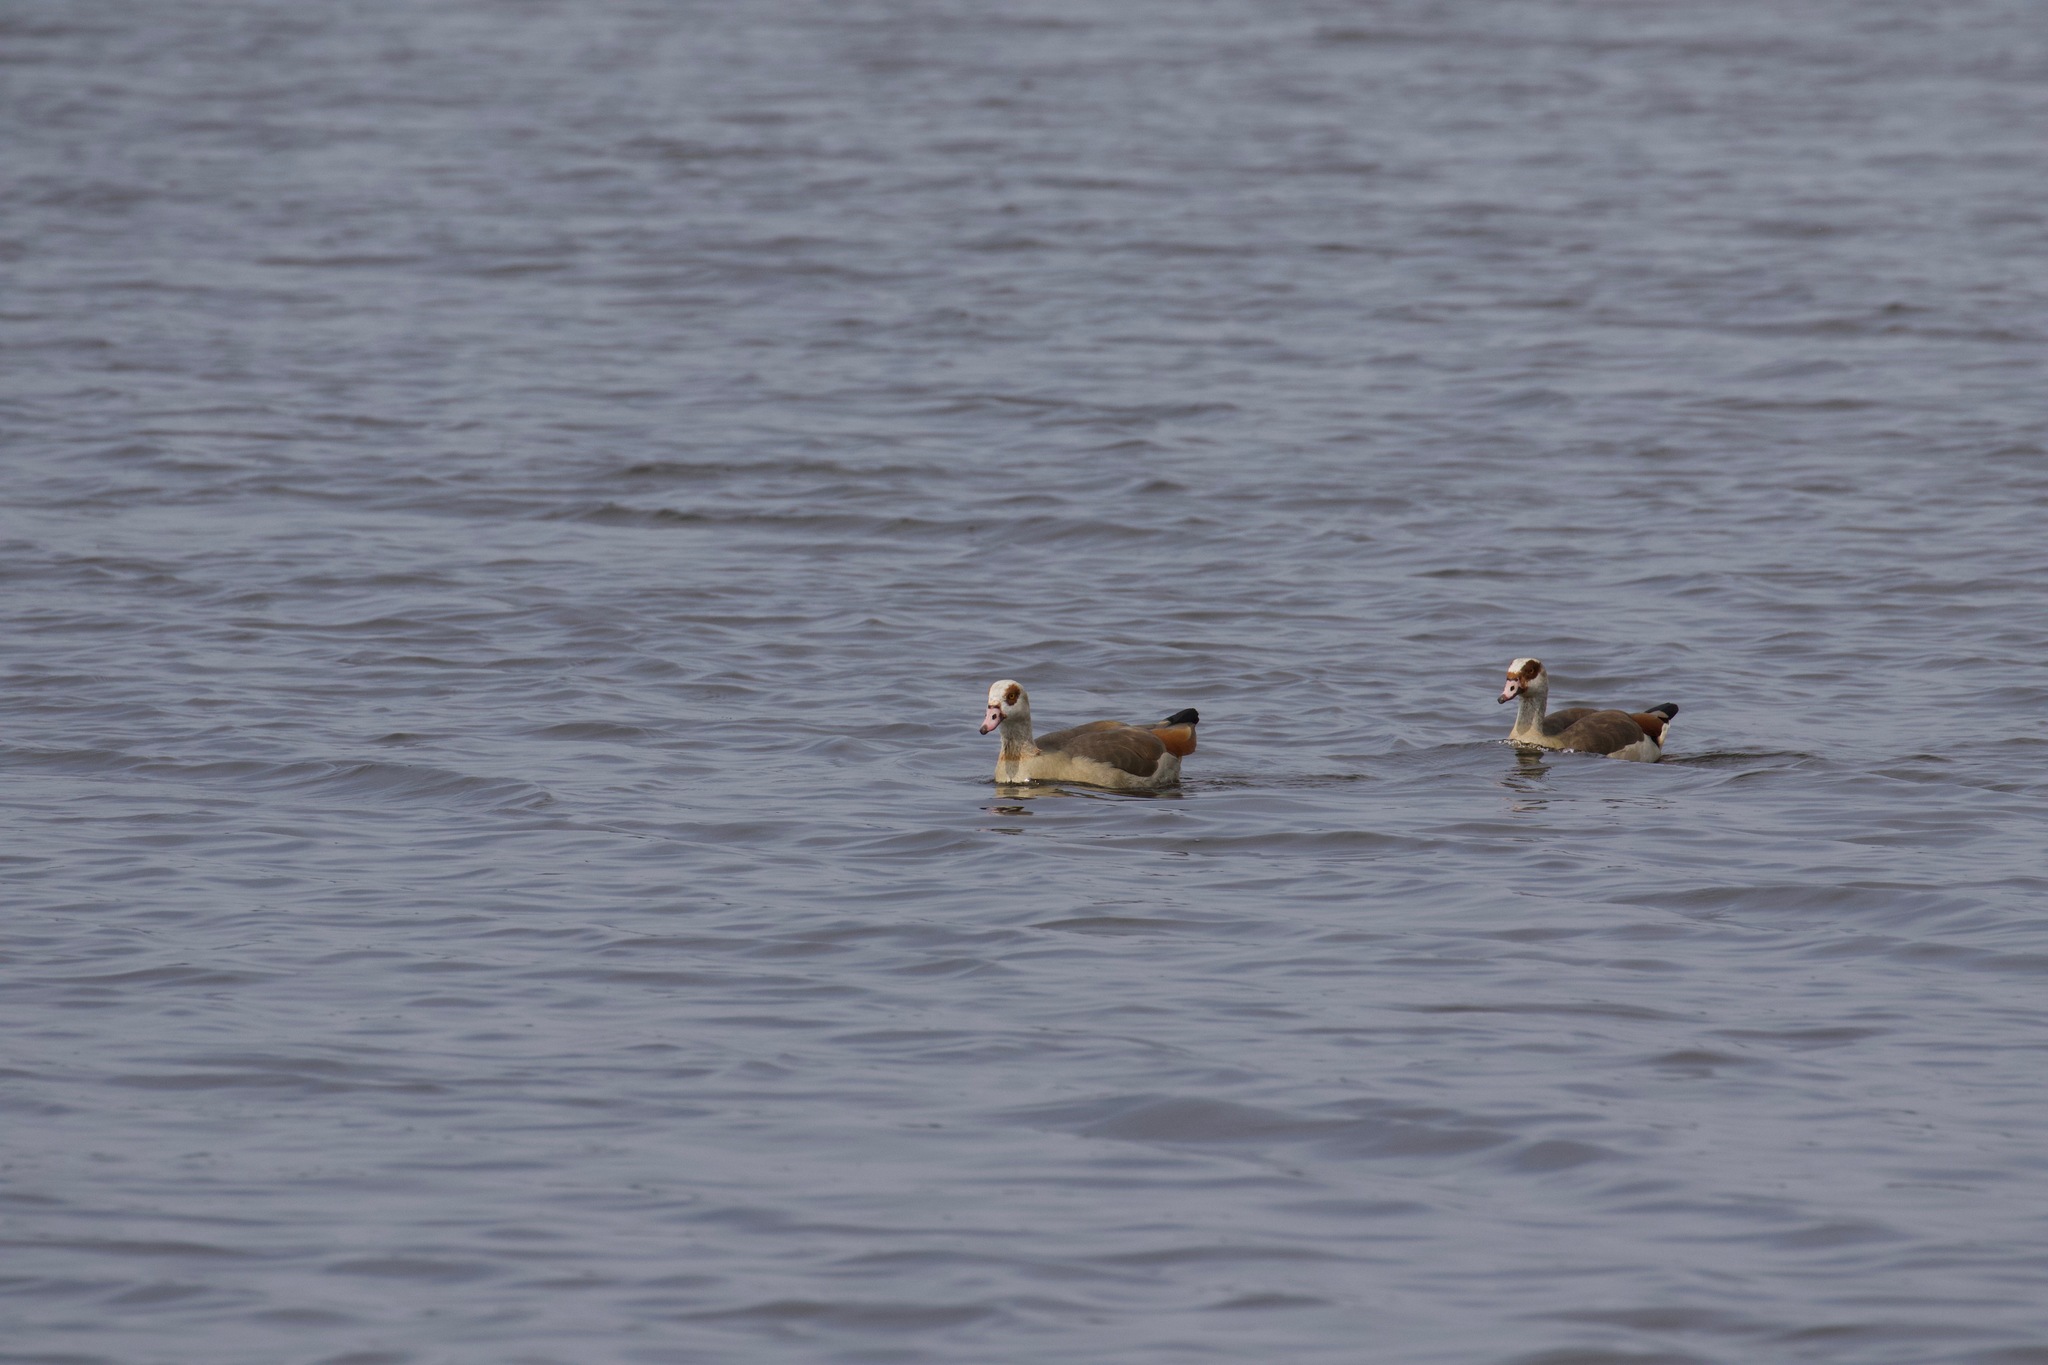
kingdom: Animalia
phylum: Chordata
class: Aves
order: Anseriformes
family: Anatidae
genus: Alopochen
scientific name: Alopochen aegyptiaca
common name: Egyptian goose
